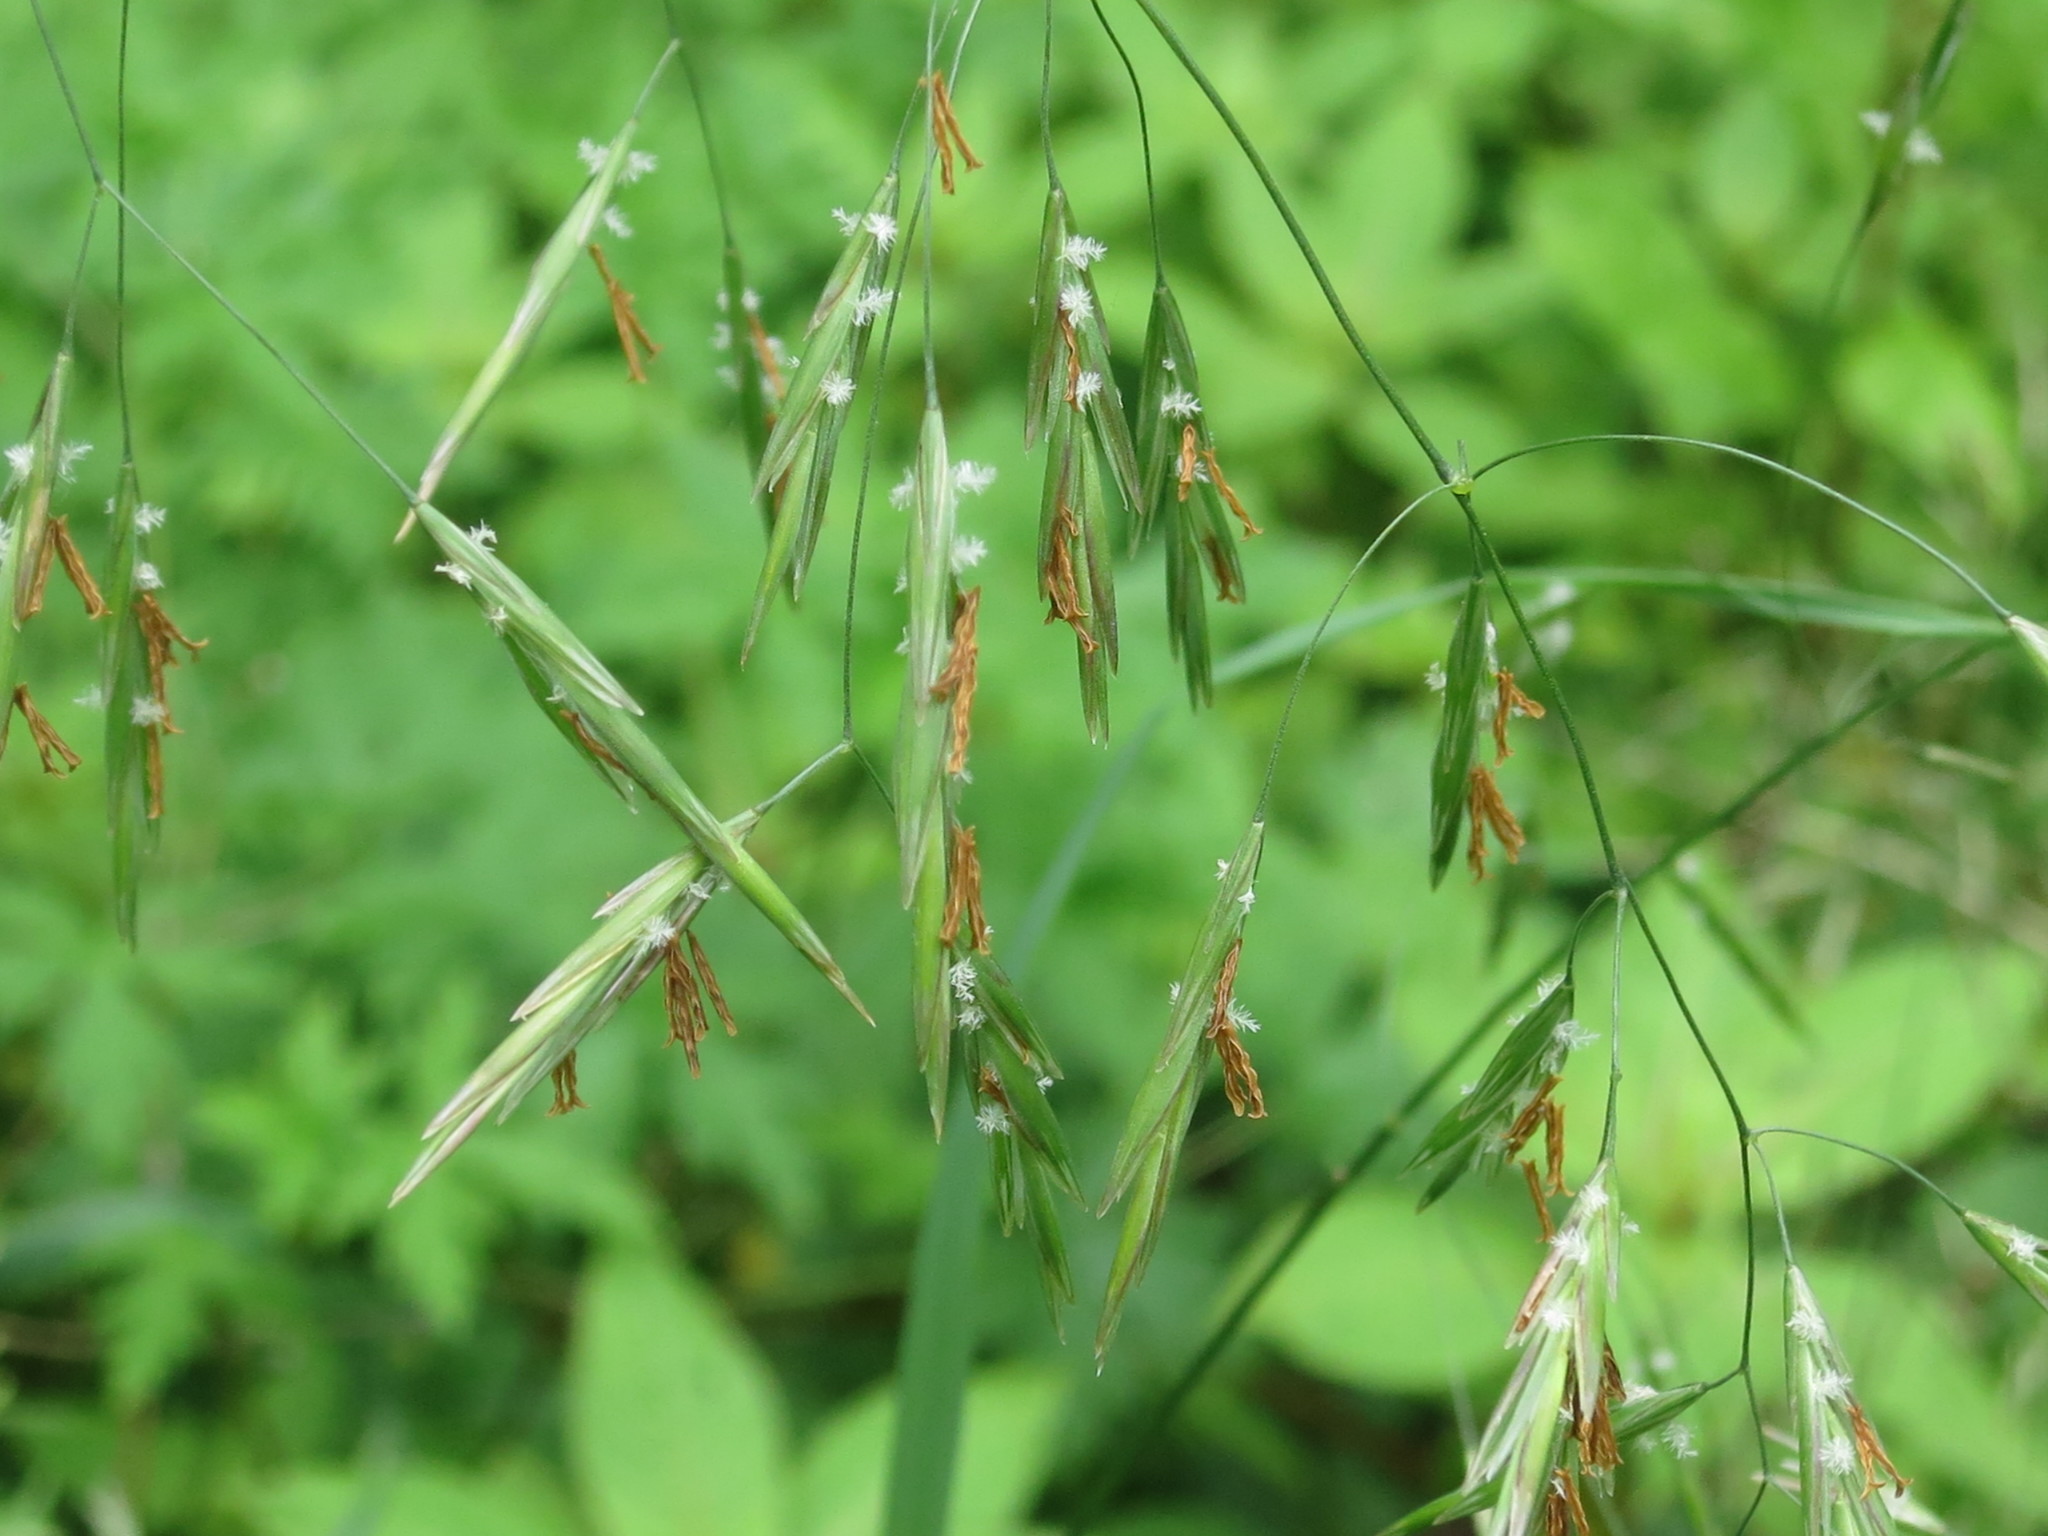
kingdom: Plantae
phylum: Tracheophyta
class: Liliopsida
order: Poales
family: Poaceae
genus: Bromus
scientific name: Bromus inermis
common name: Smooth brome
